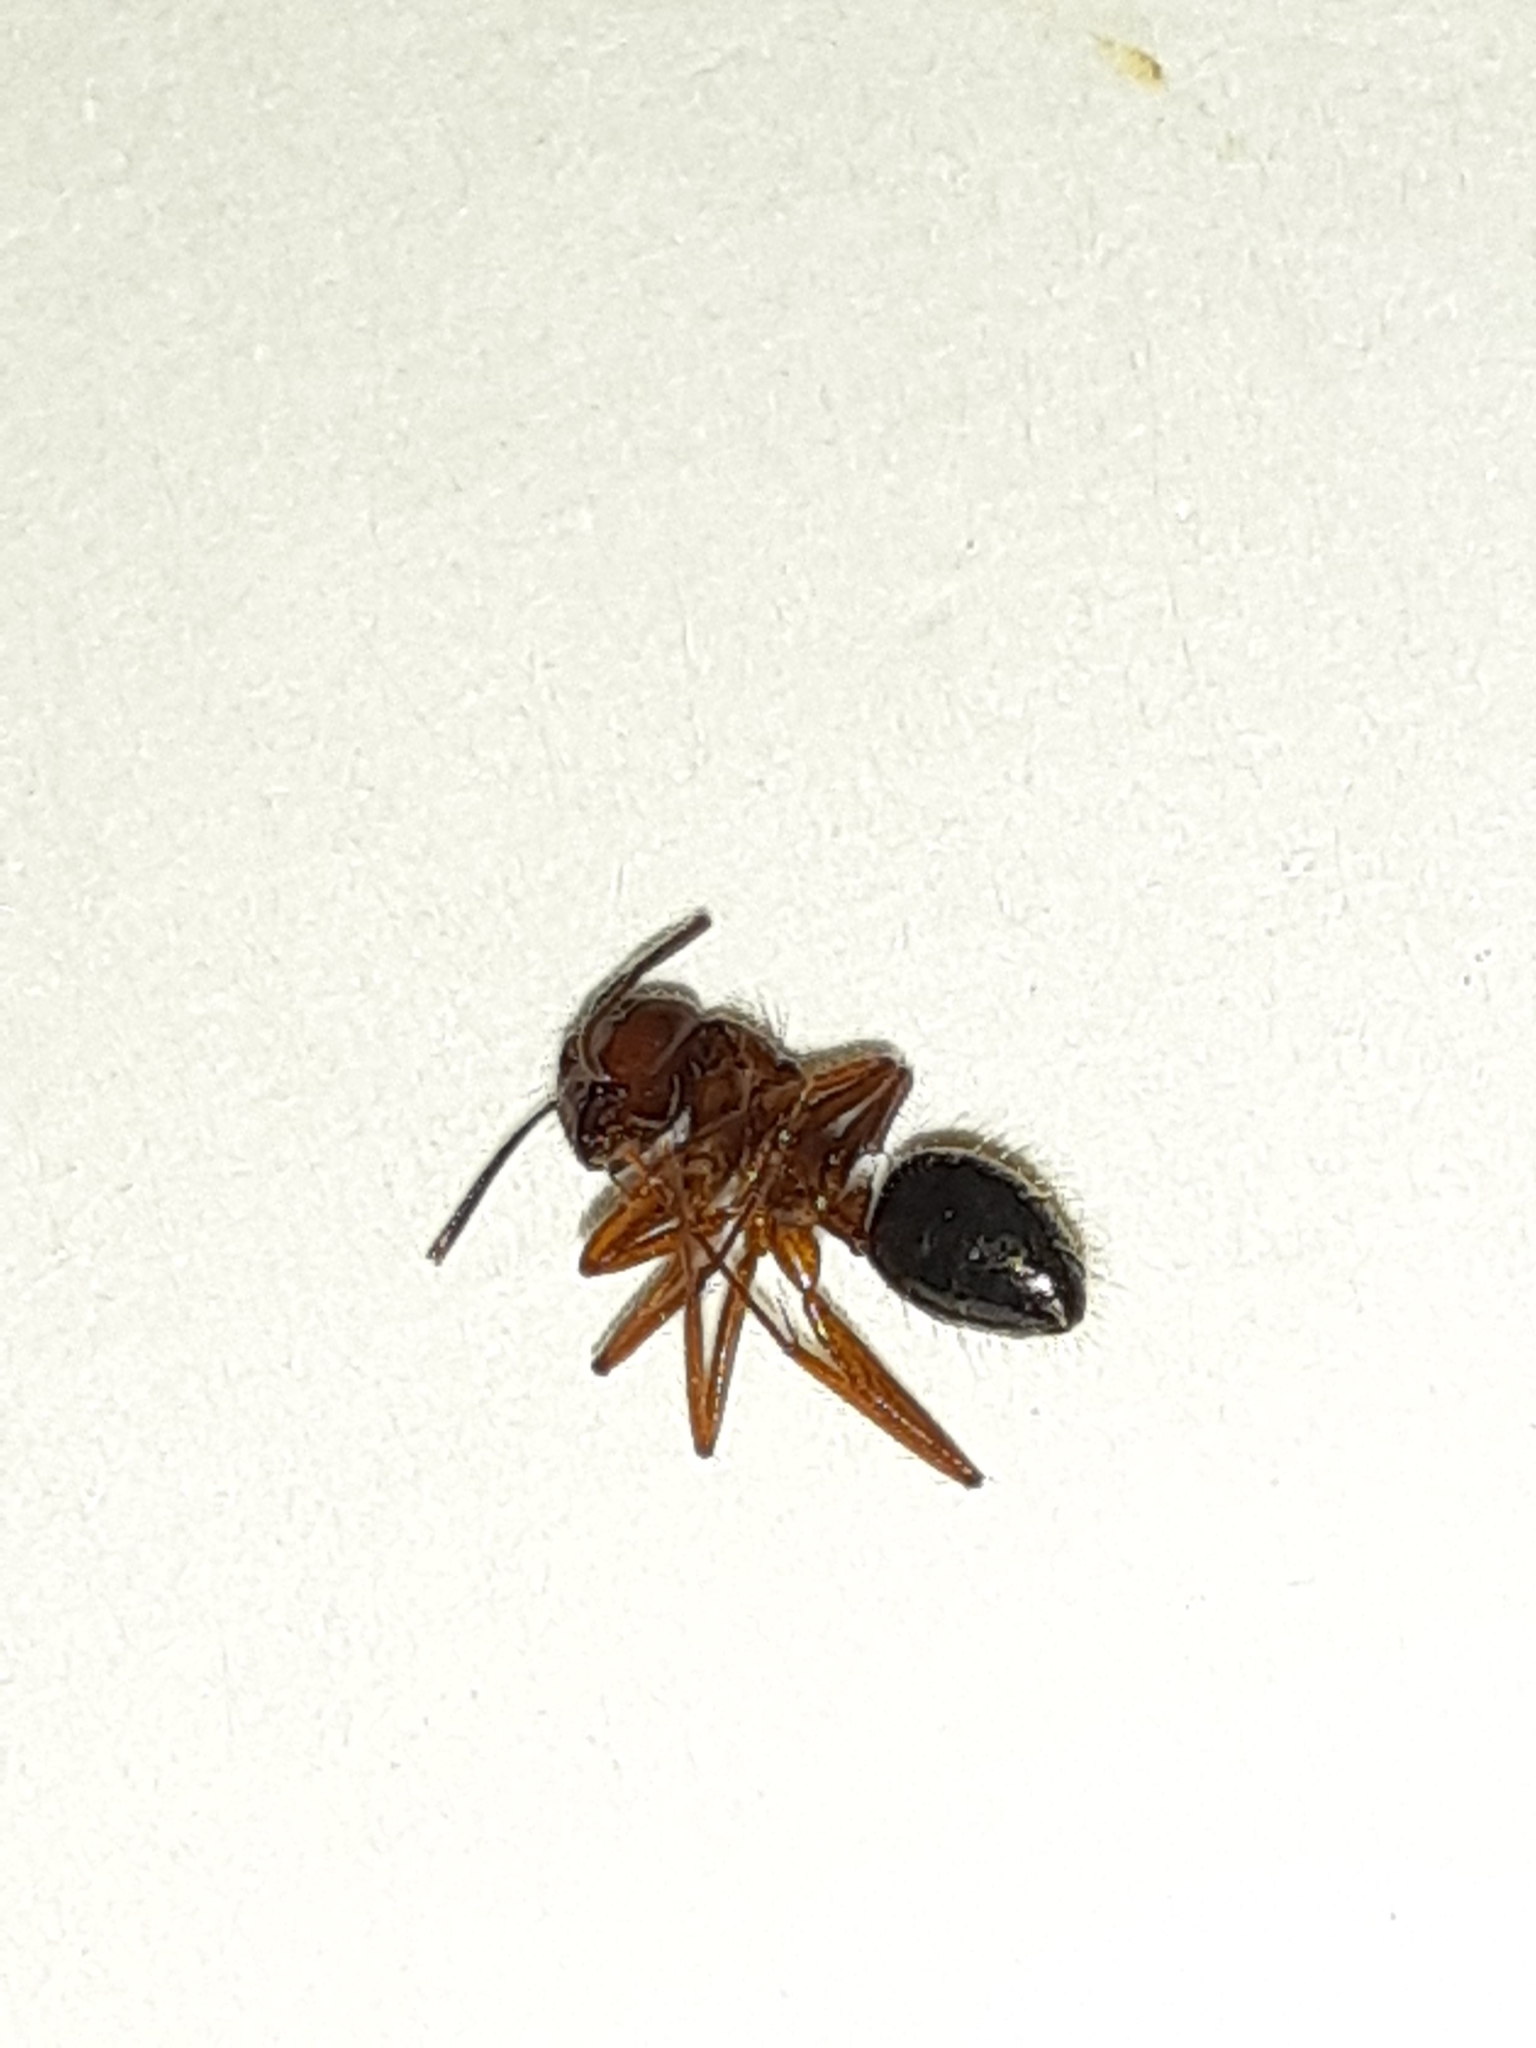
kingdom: Animalia
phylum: Arthropoda
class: Insecta
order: Hymenoptera
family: Formicidae
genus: Camponotus
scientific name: Camponotus floridanus
